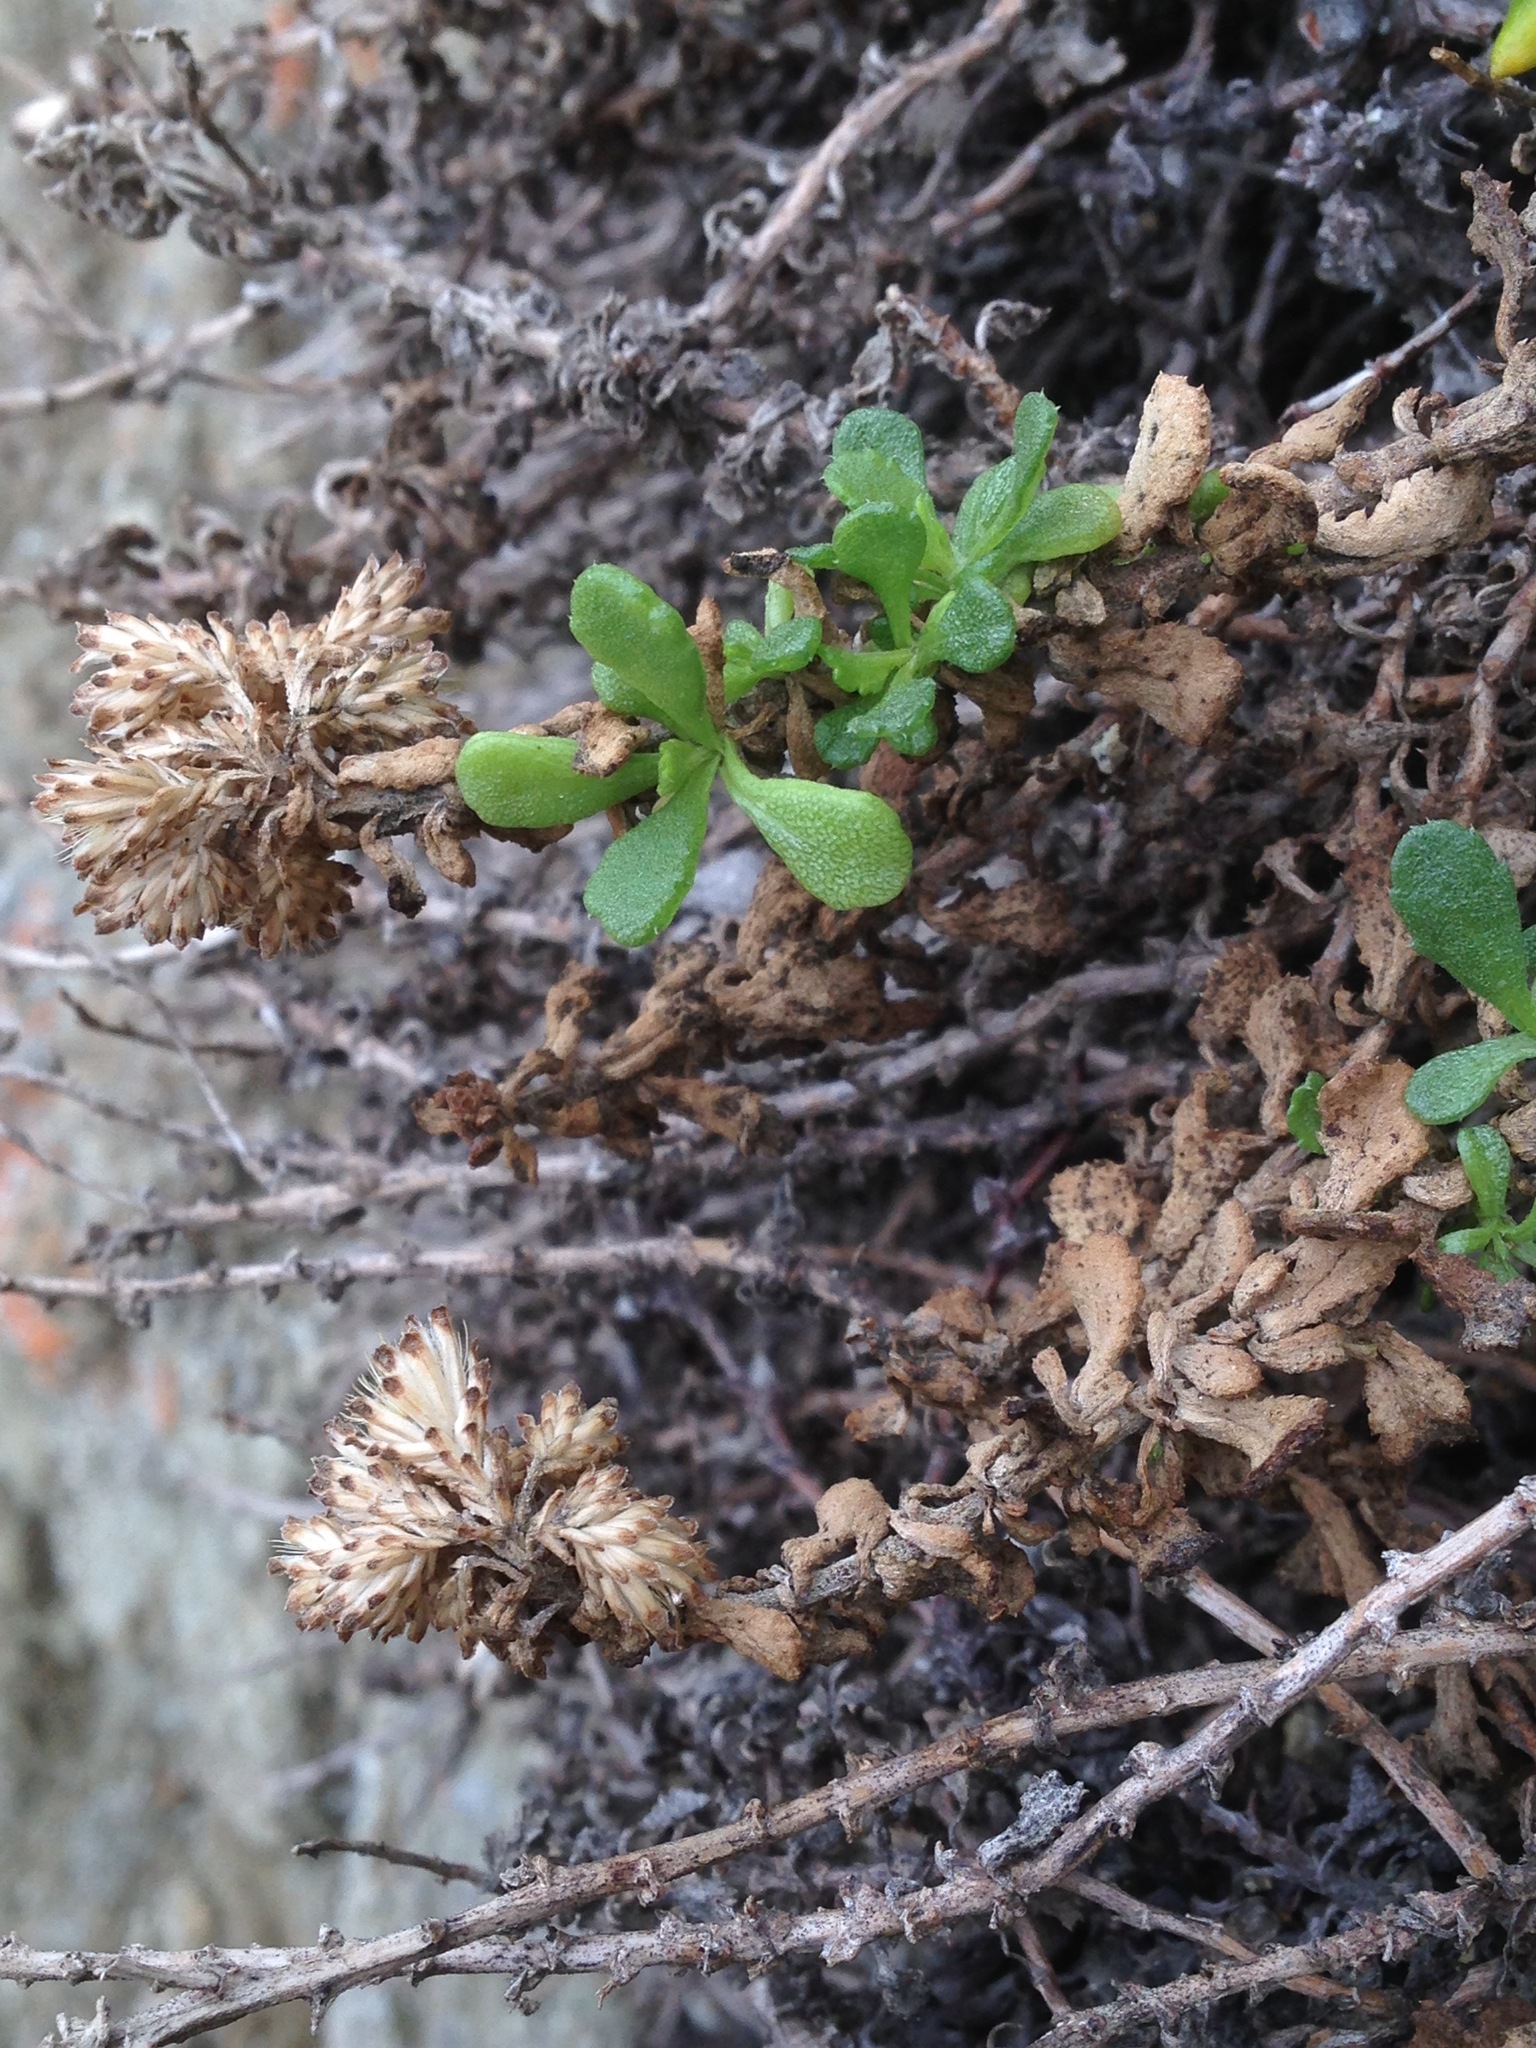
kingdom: Plantae
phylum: Tracheophyta
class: Magnoliopsida
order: Asterales
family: Asteraceae
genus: Isocoma
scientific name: Isocoma menziesii
